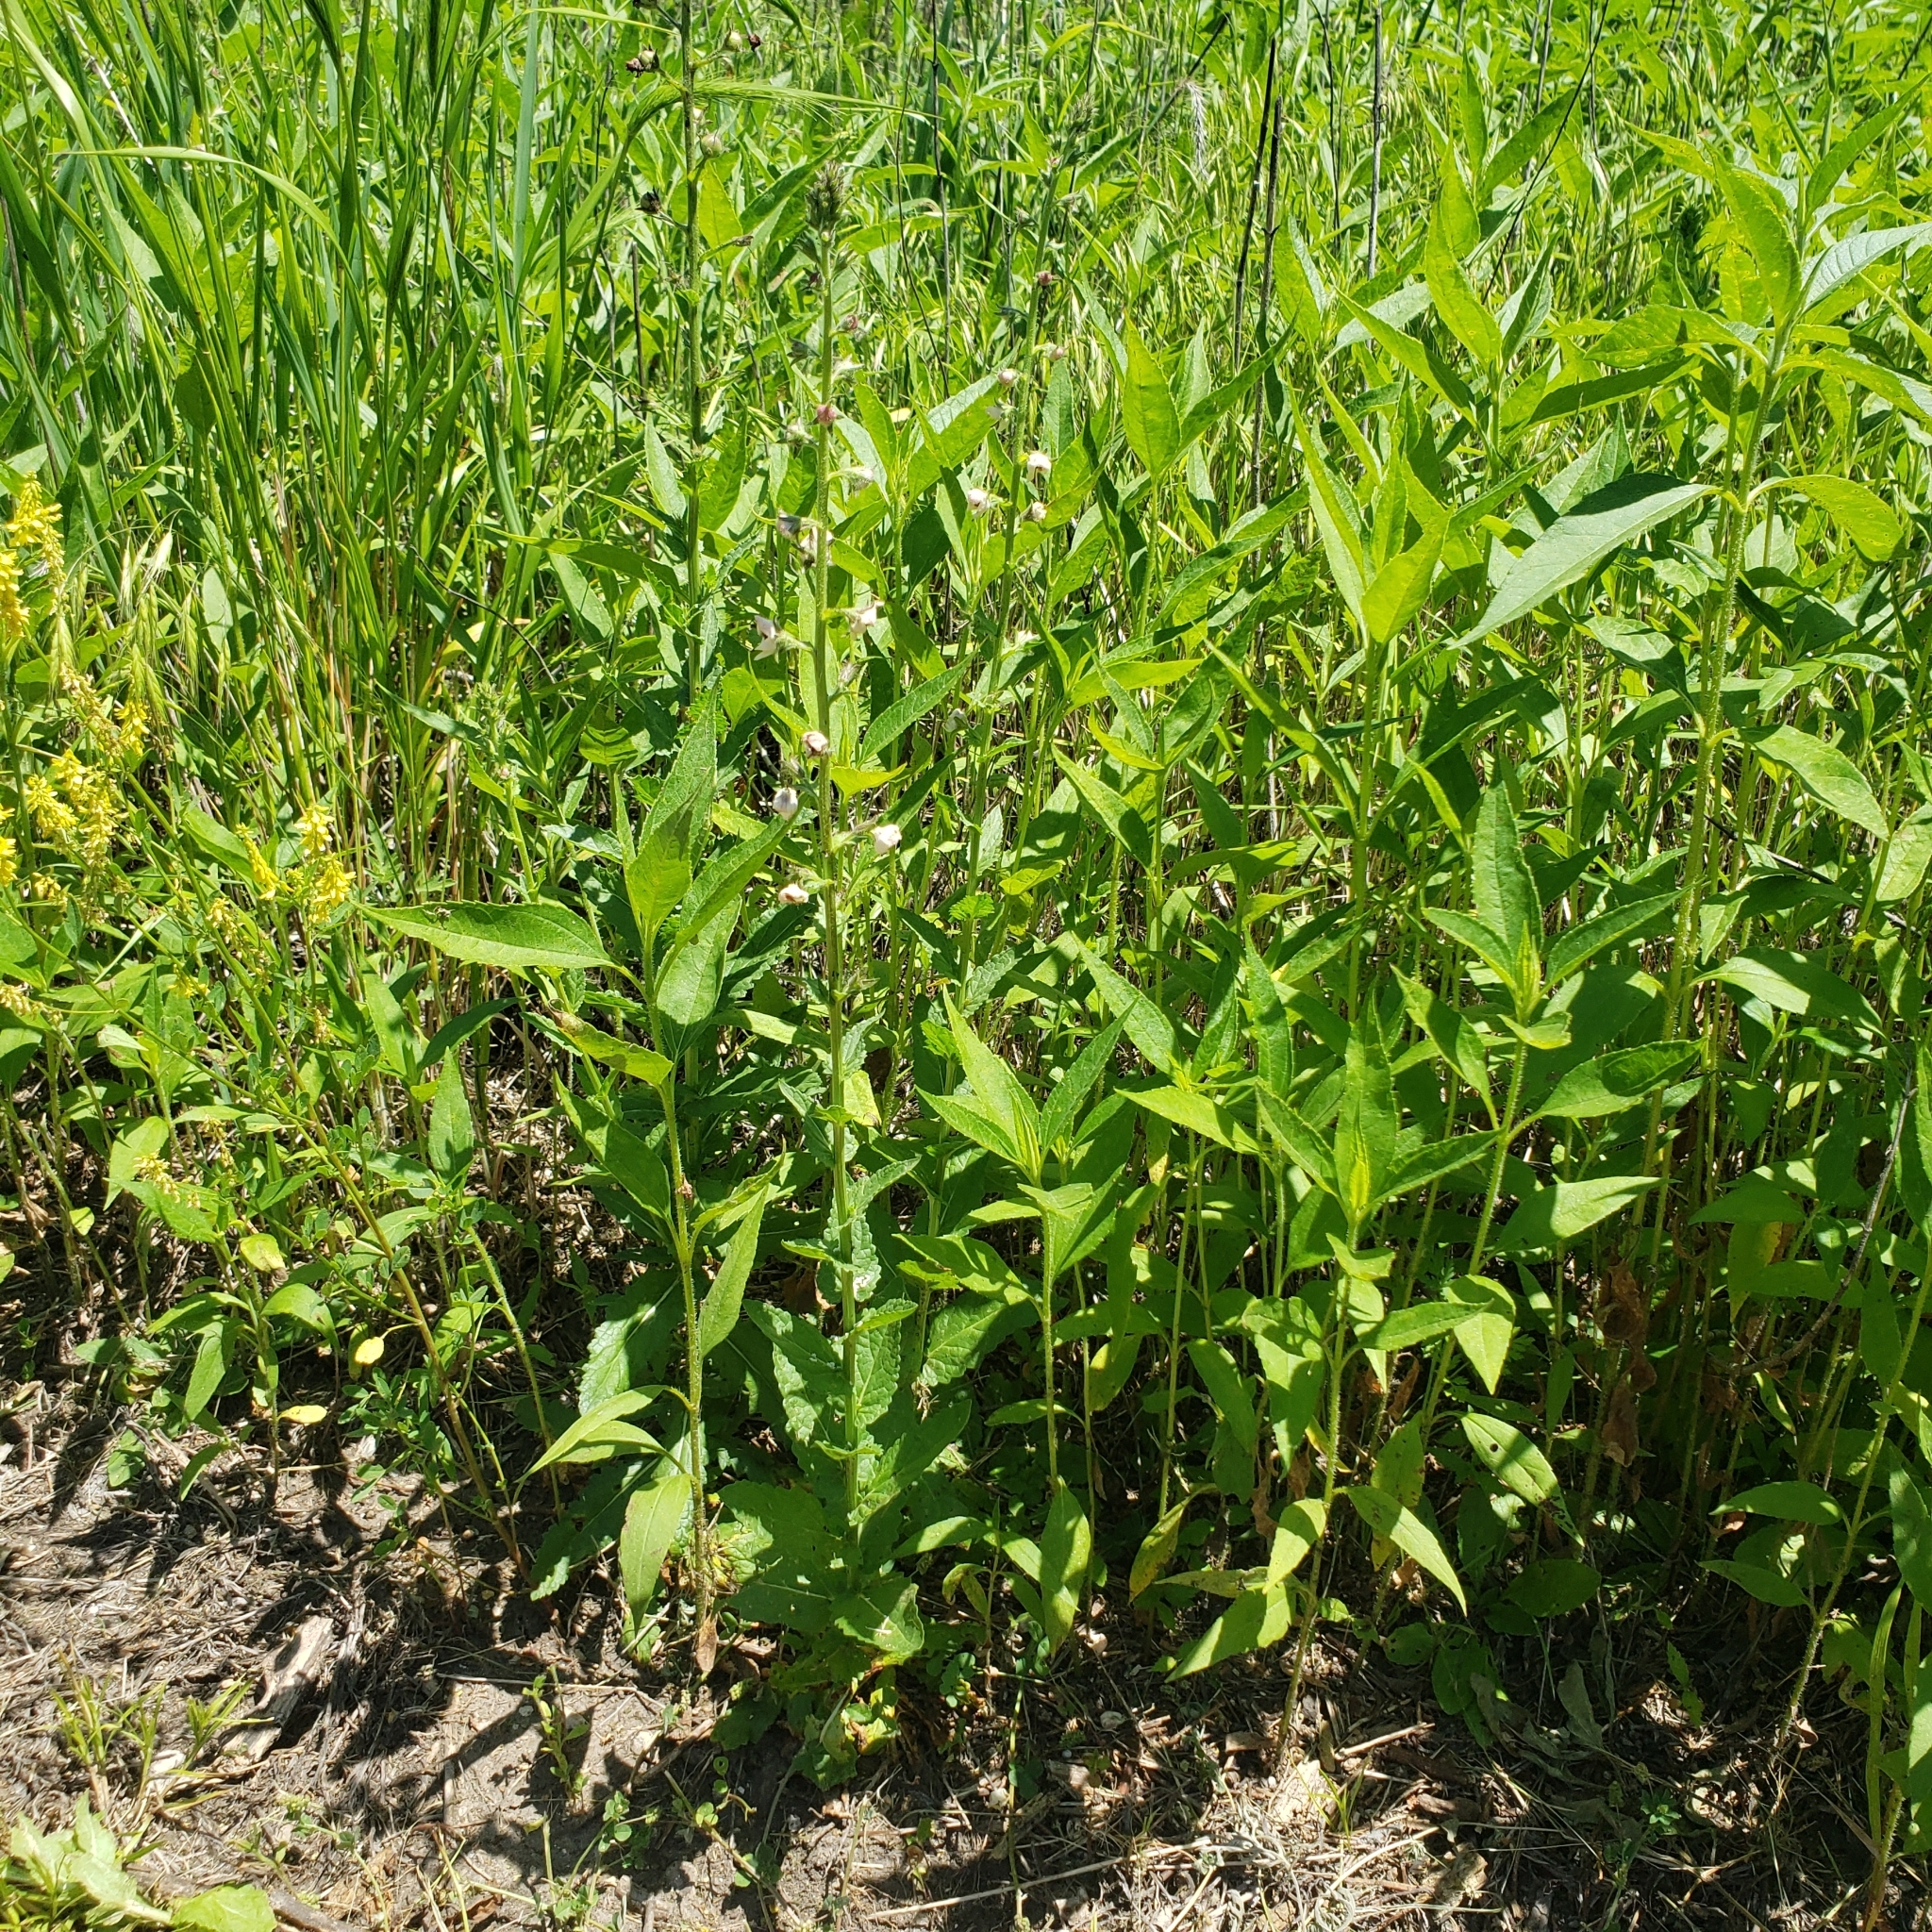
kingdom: Plantae
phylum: Tracheophyta
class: Magnoliopsida
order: Lamiales
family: Scrophulariaceae
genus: Verbascum
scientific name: Verbascum blattaria
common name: Moth mullein
